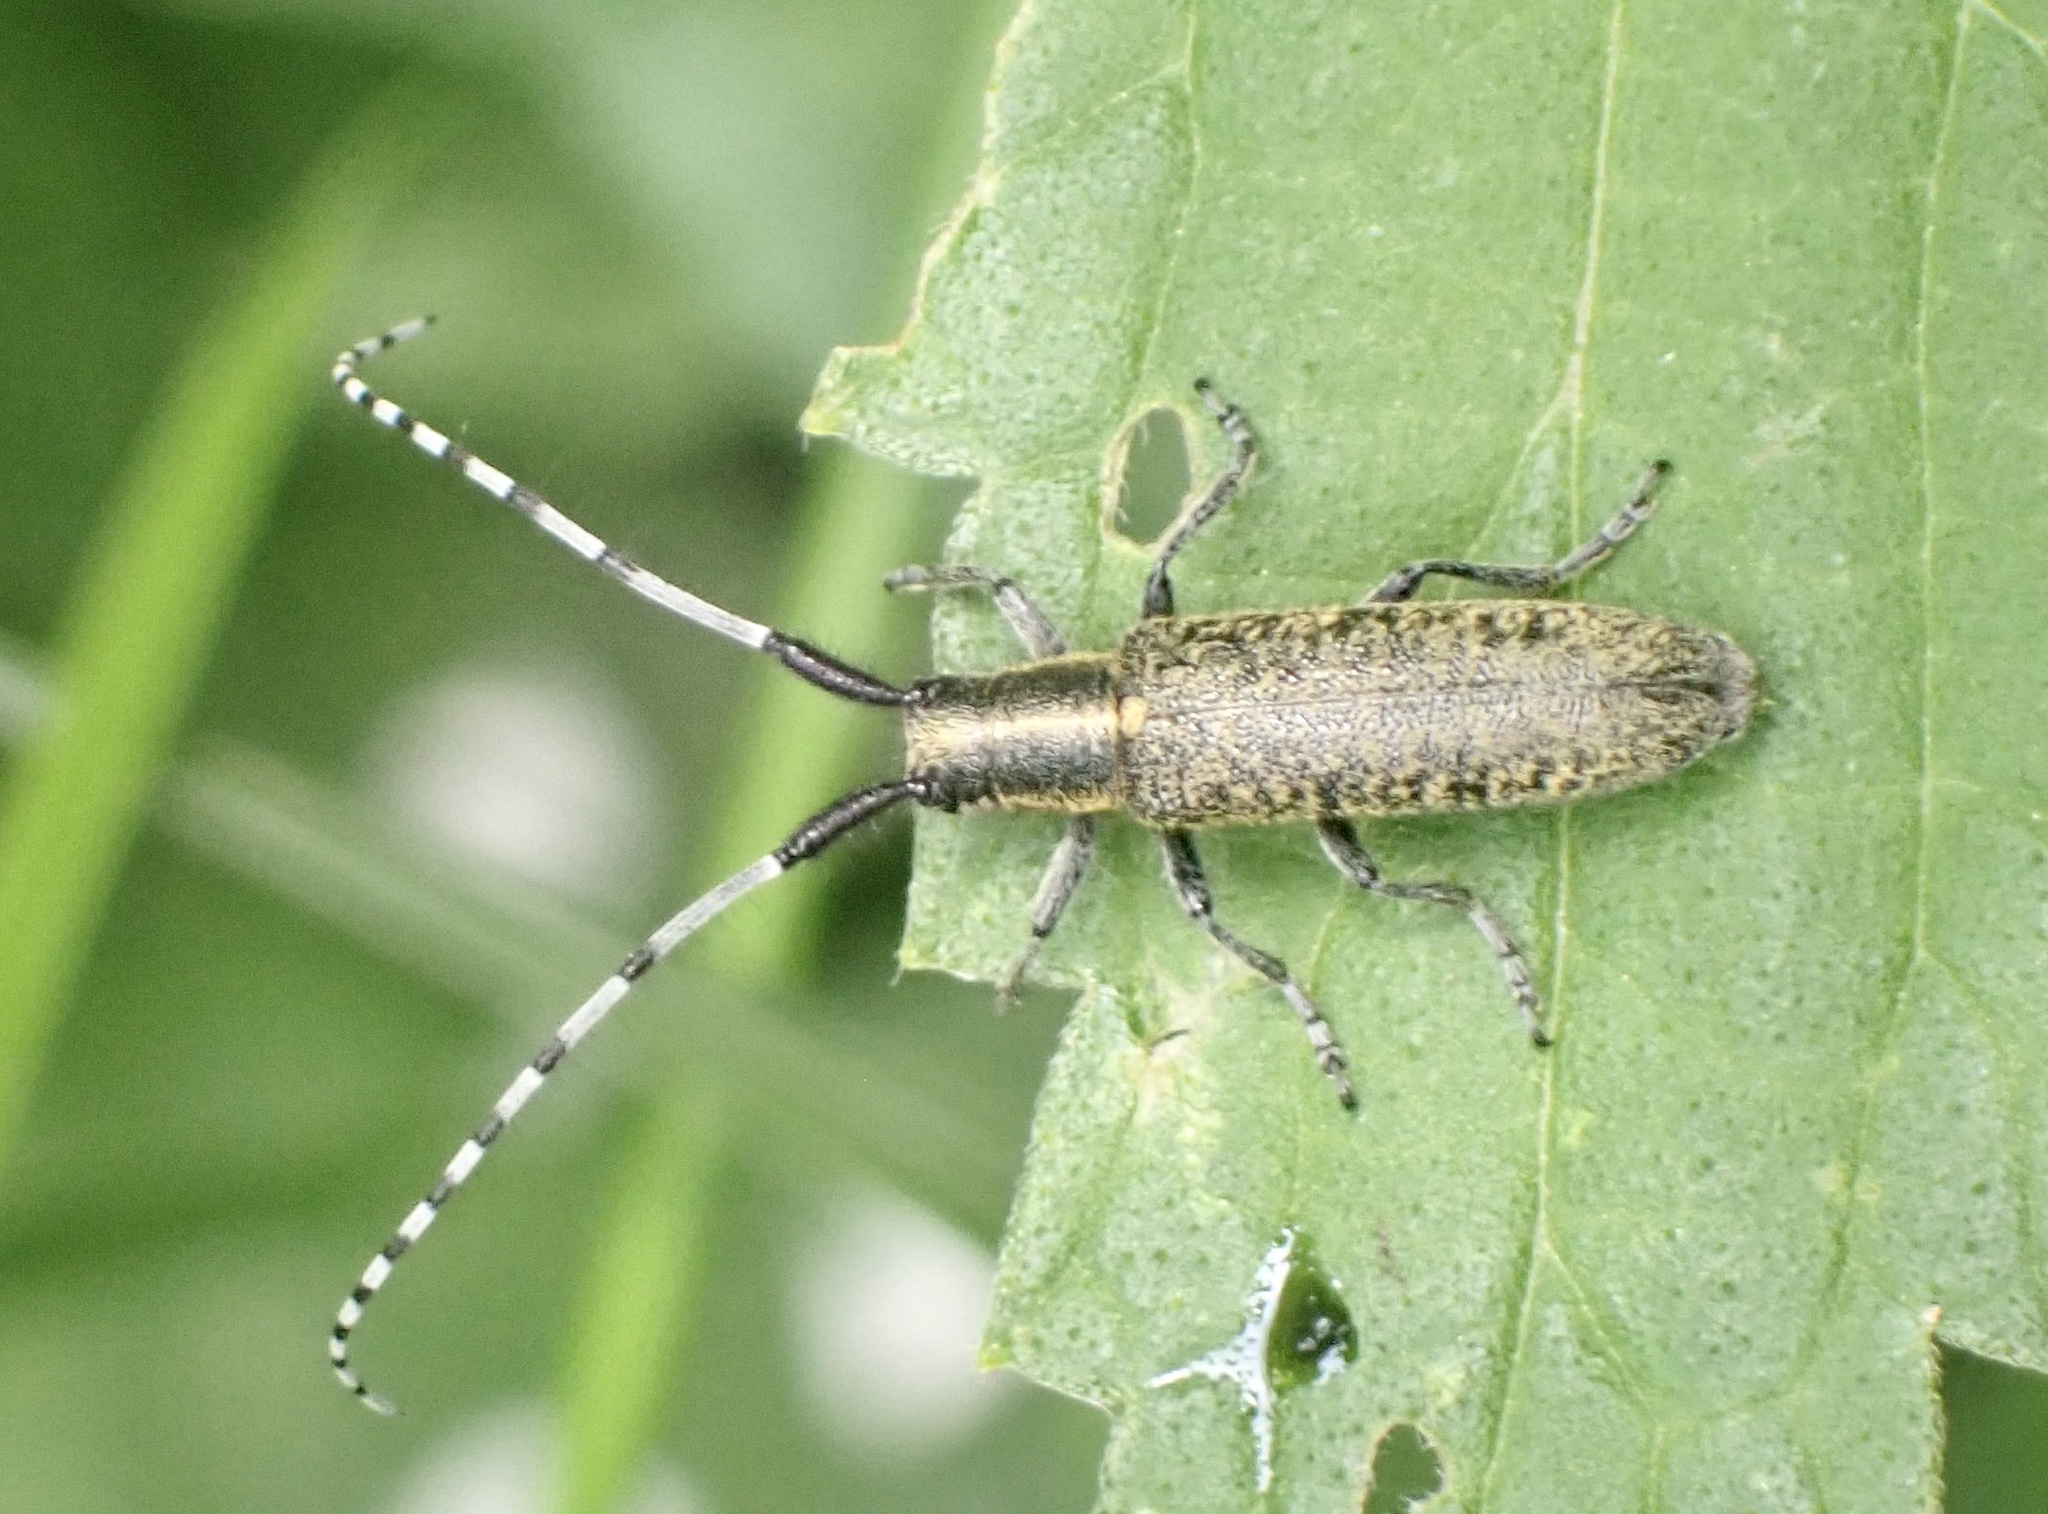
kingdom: Animalia
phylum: Arthropoda
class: Insecta
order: Coleoptera
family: Cerambycidae
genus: Agapanthia
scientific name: Agapanthia villosoviridescens
